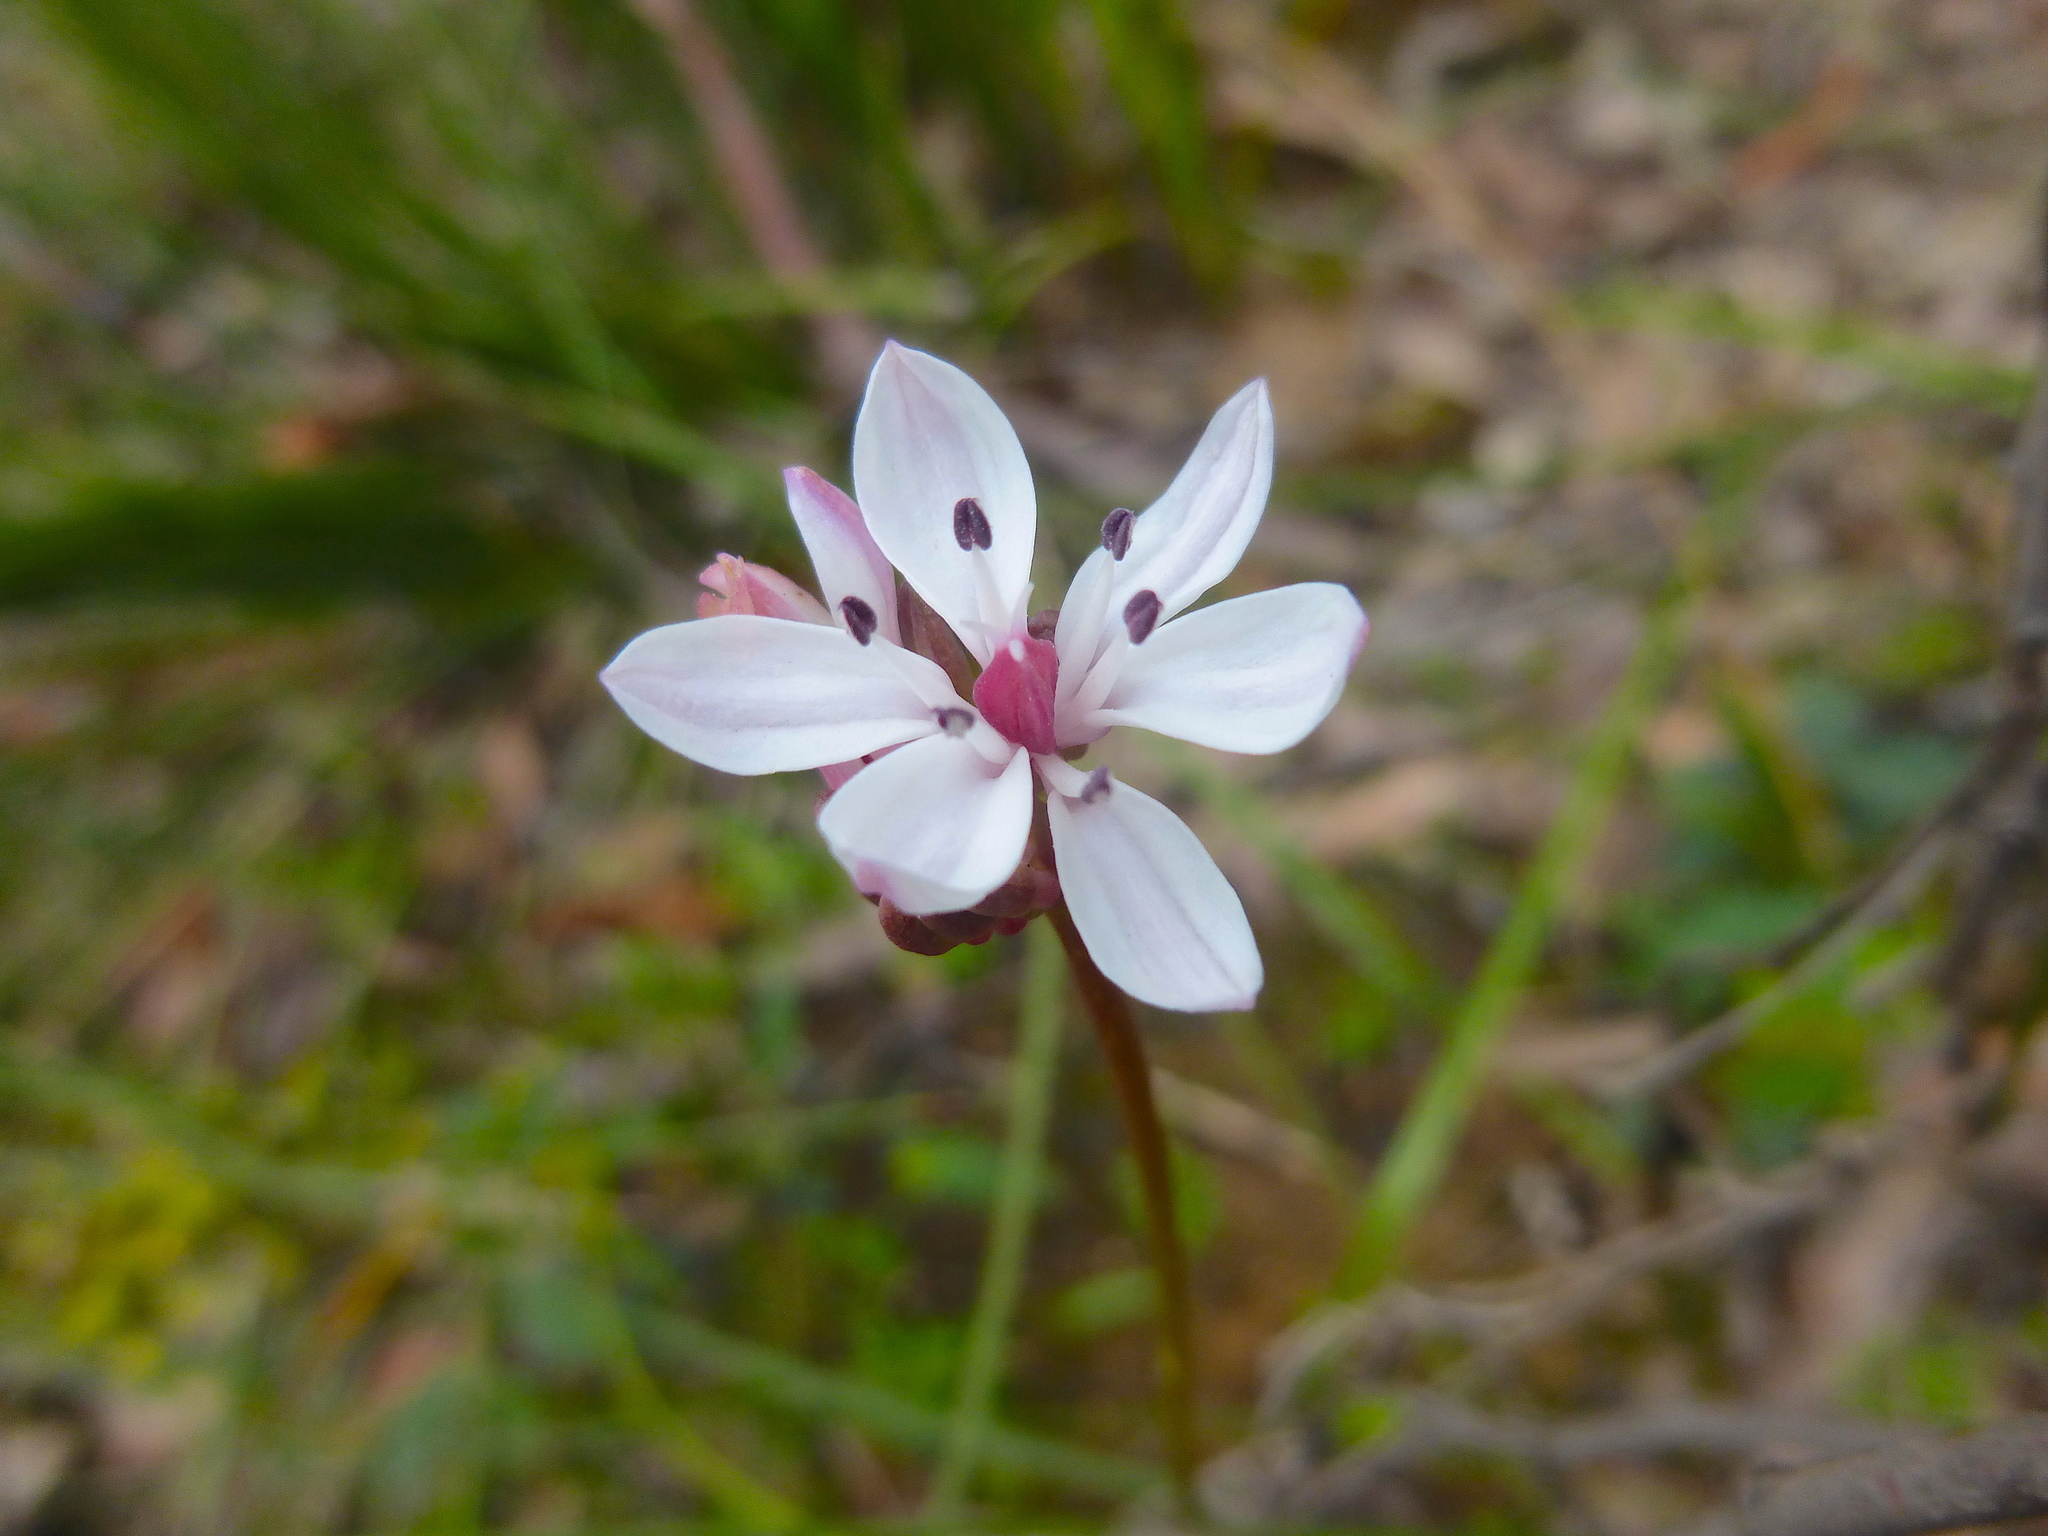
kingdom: Plantae
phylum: Tracheophyta
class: Liliopsida
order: Liliales
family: Colchicaceae
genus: Burchardia
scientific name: Burchardia umbellata
